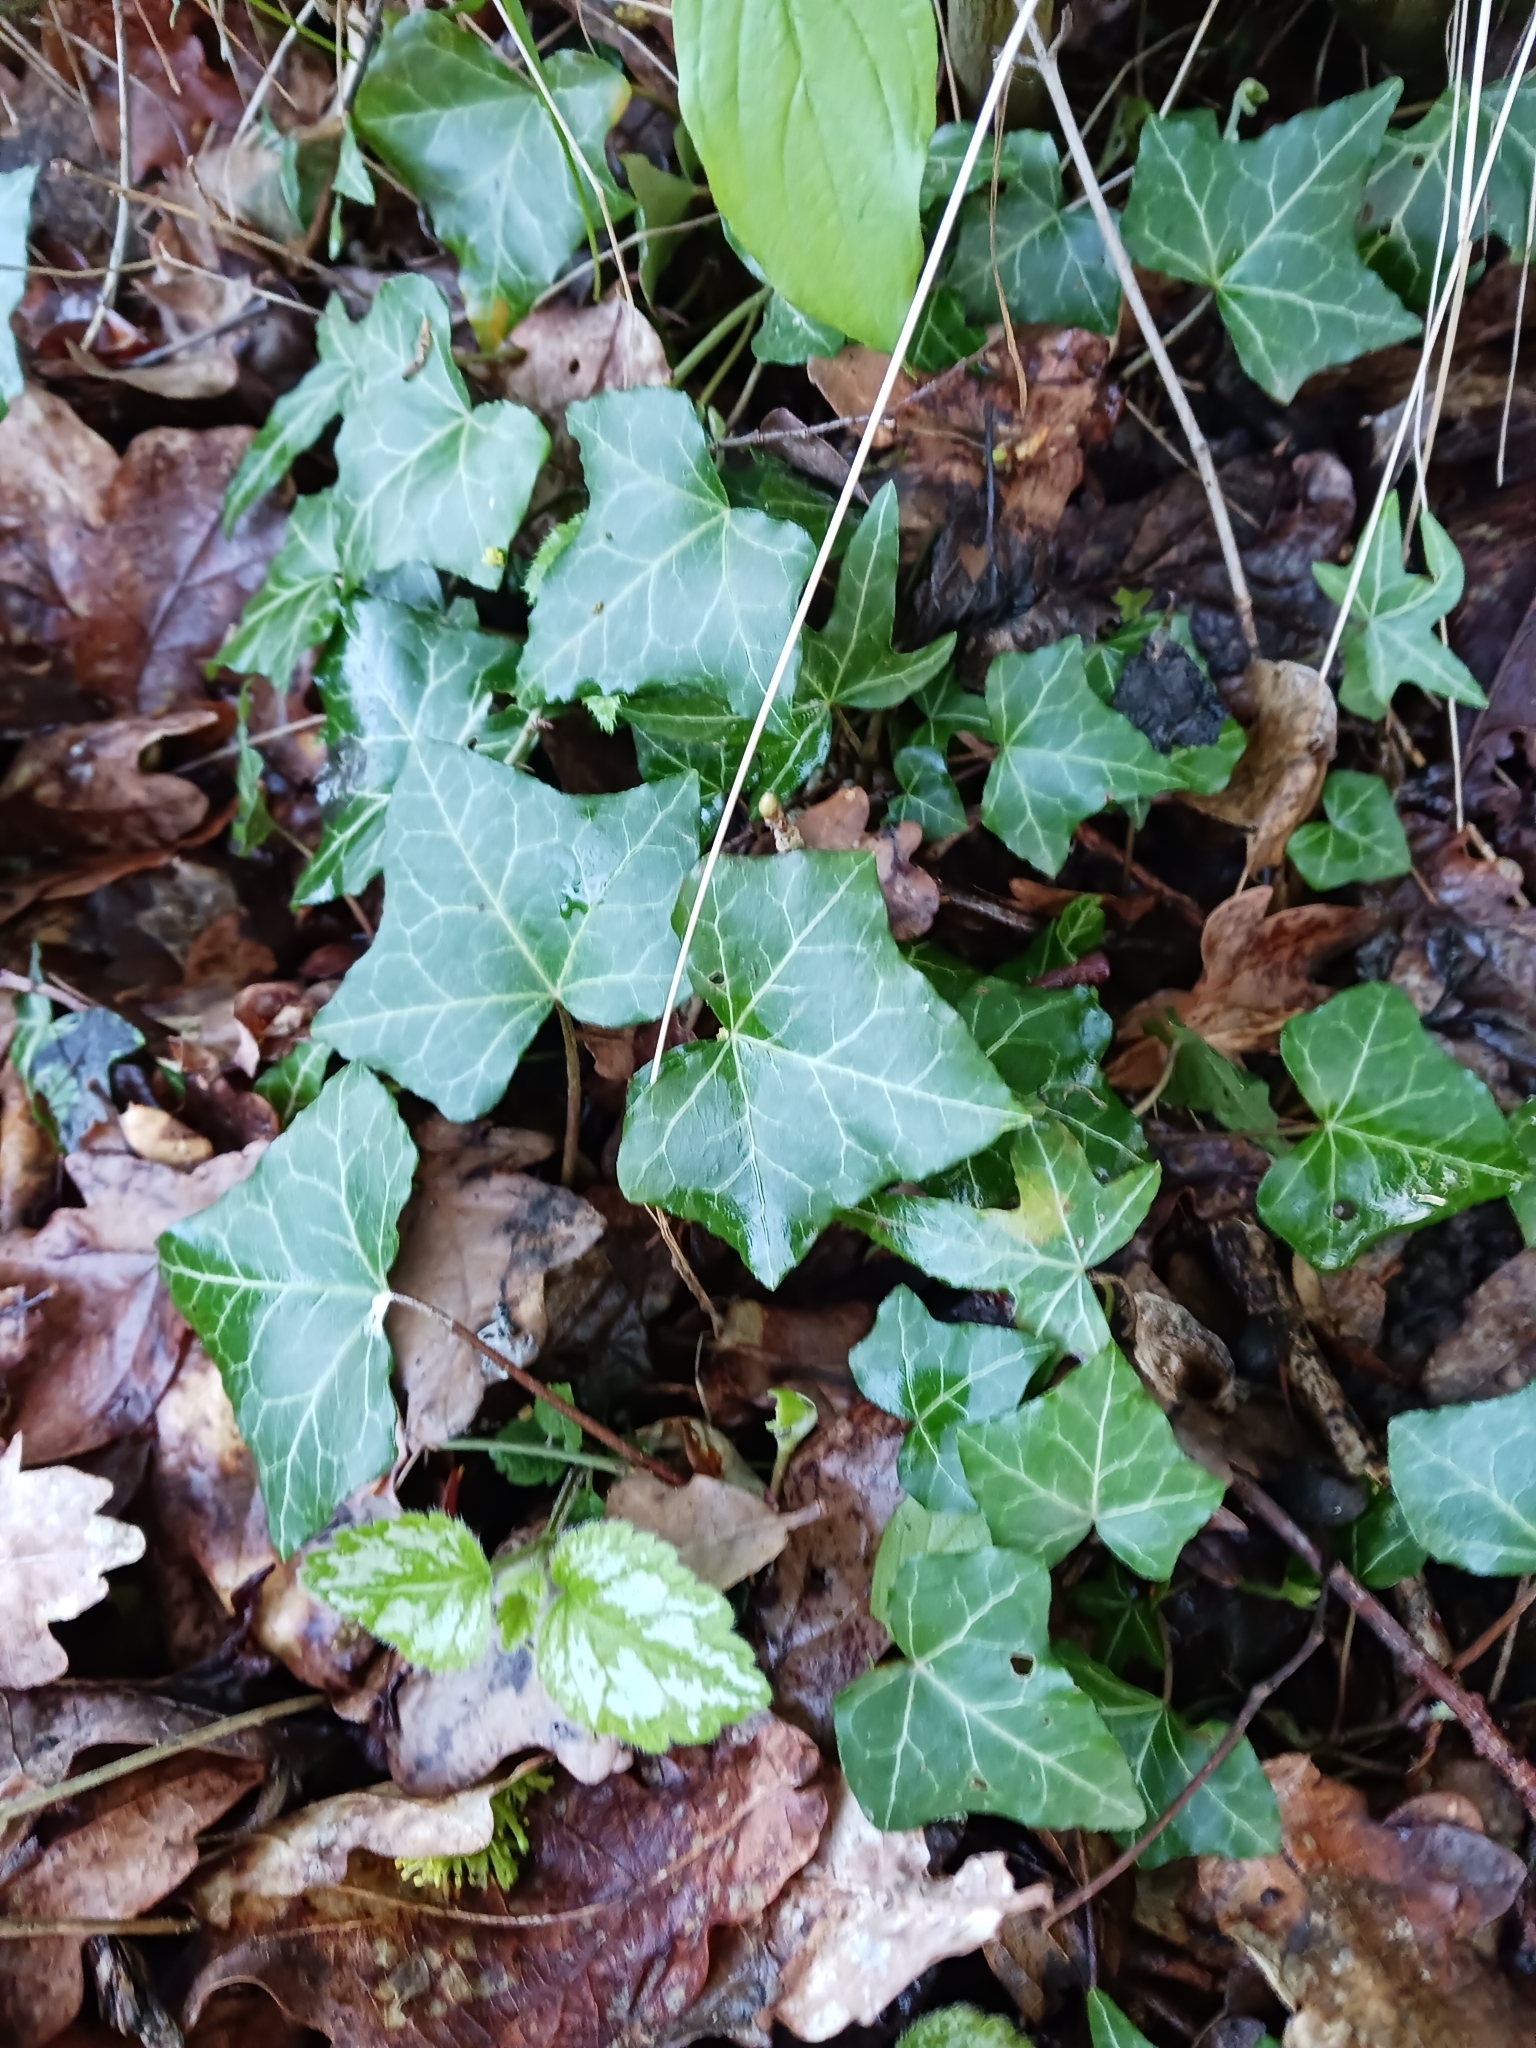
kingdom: Plantae
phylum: Tracheophyta
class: Magnoliopsida
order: Apiales
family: Araliaceae
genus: Hedera
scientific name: Hedera helix
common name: Ivy
